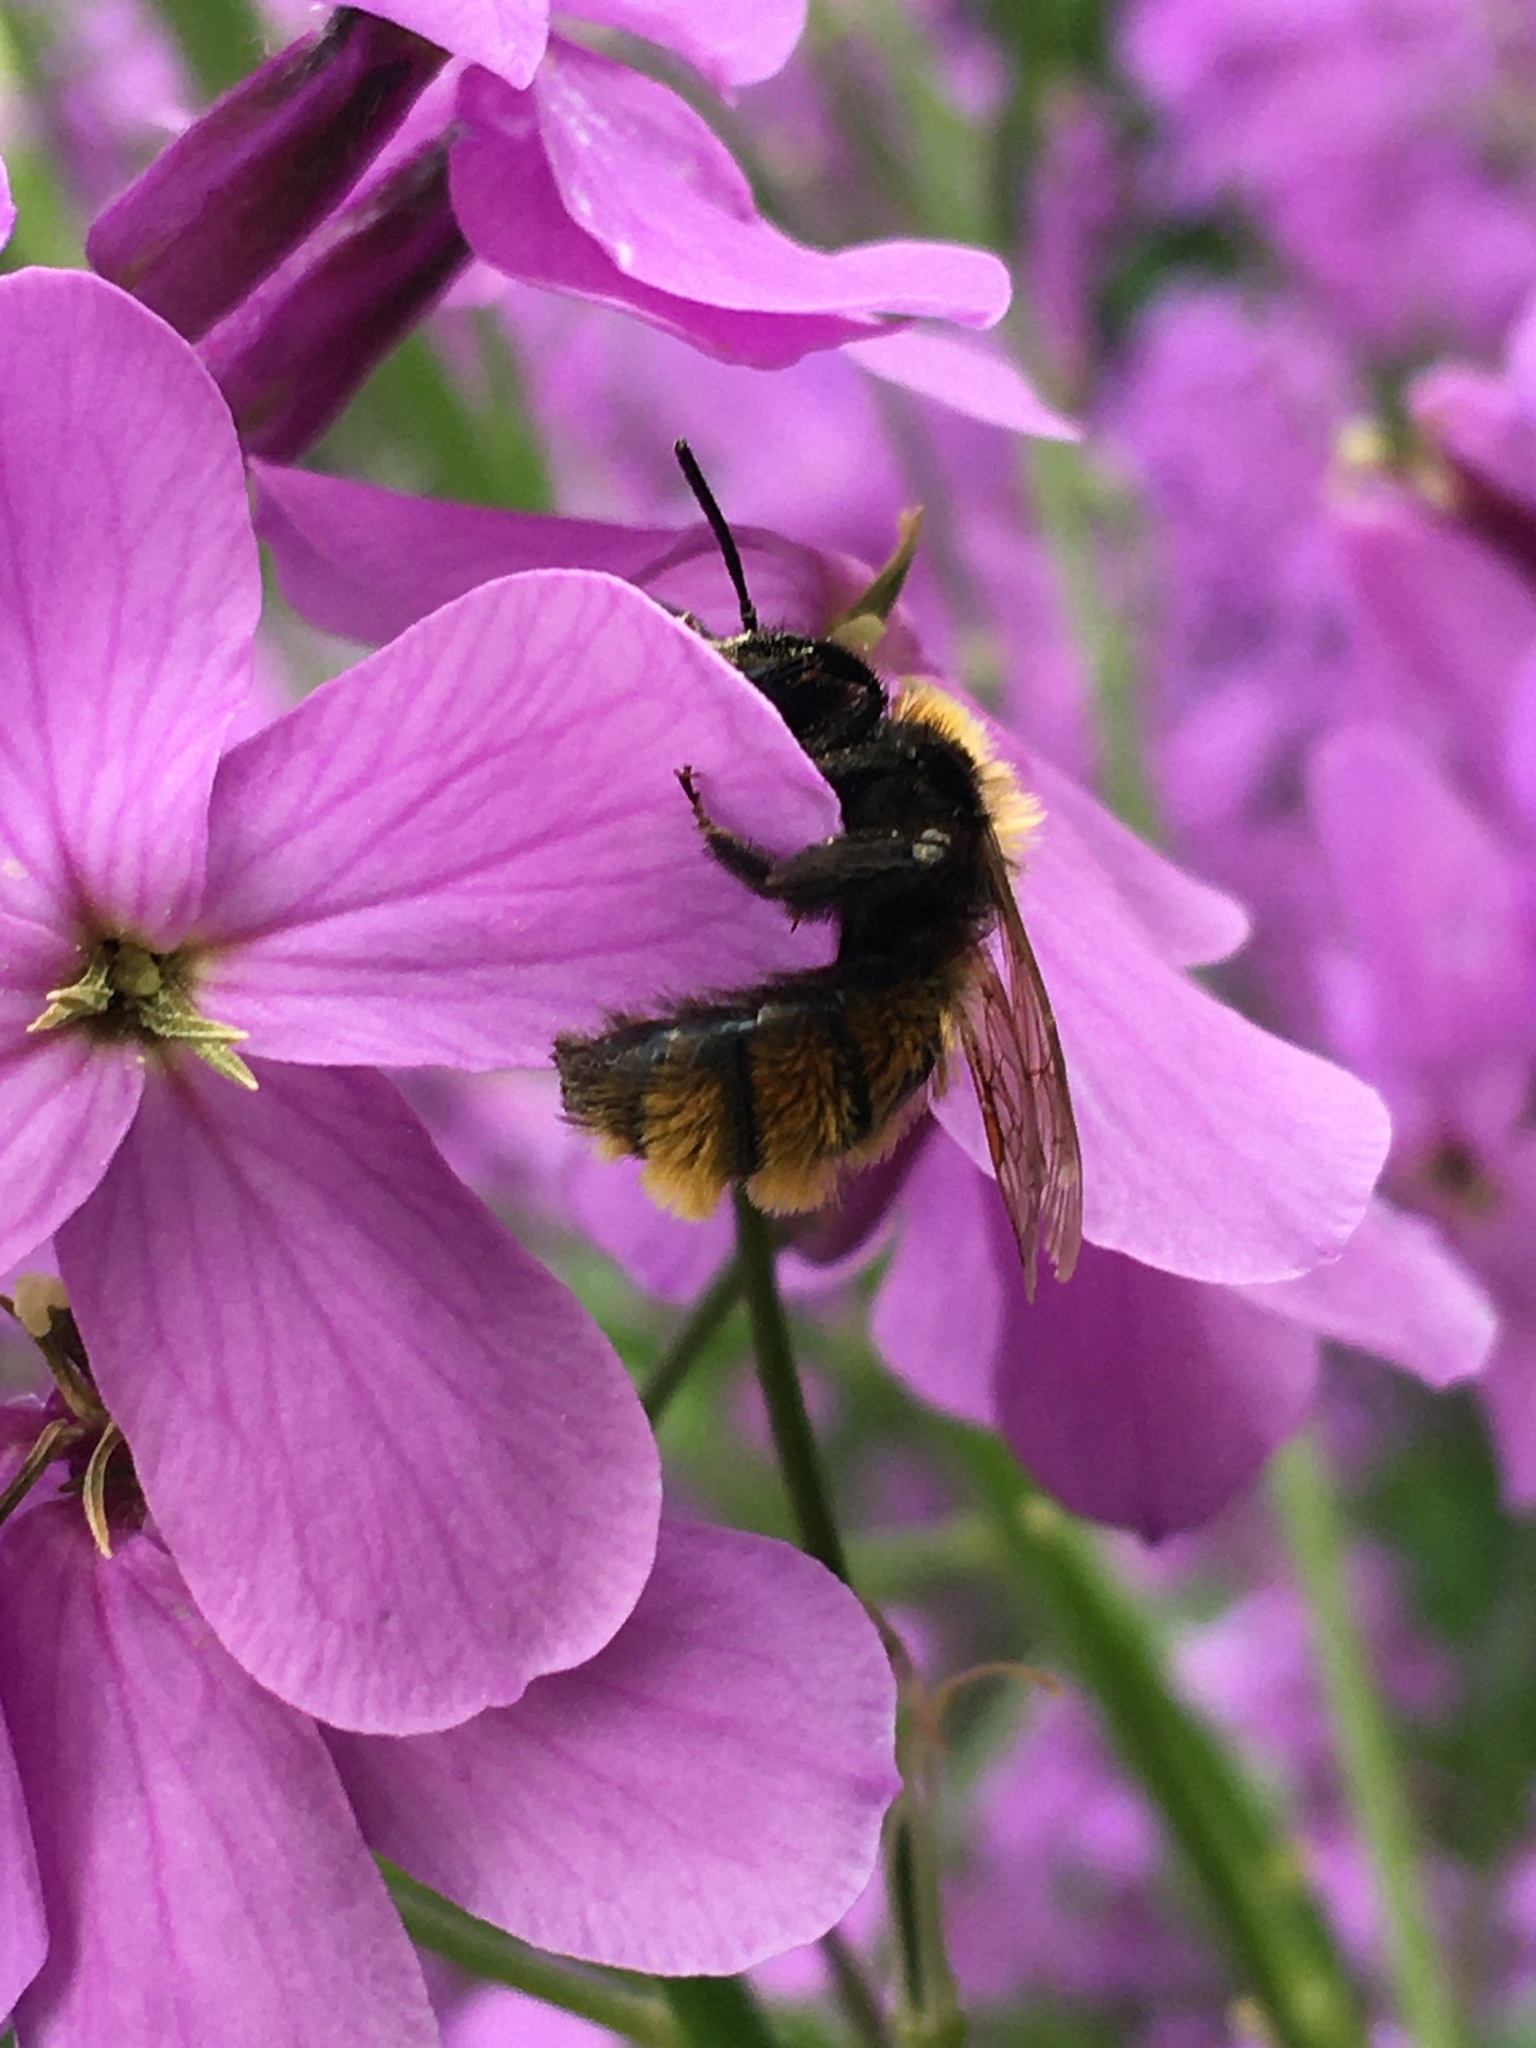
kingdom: Animalia
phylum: Arthropoda
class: Insecta
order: Hymenoptera
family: Andrenidae
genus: Andrena
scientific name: Andrena fulva
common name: Tawny mining bee
